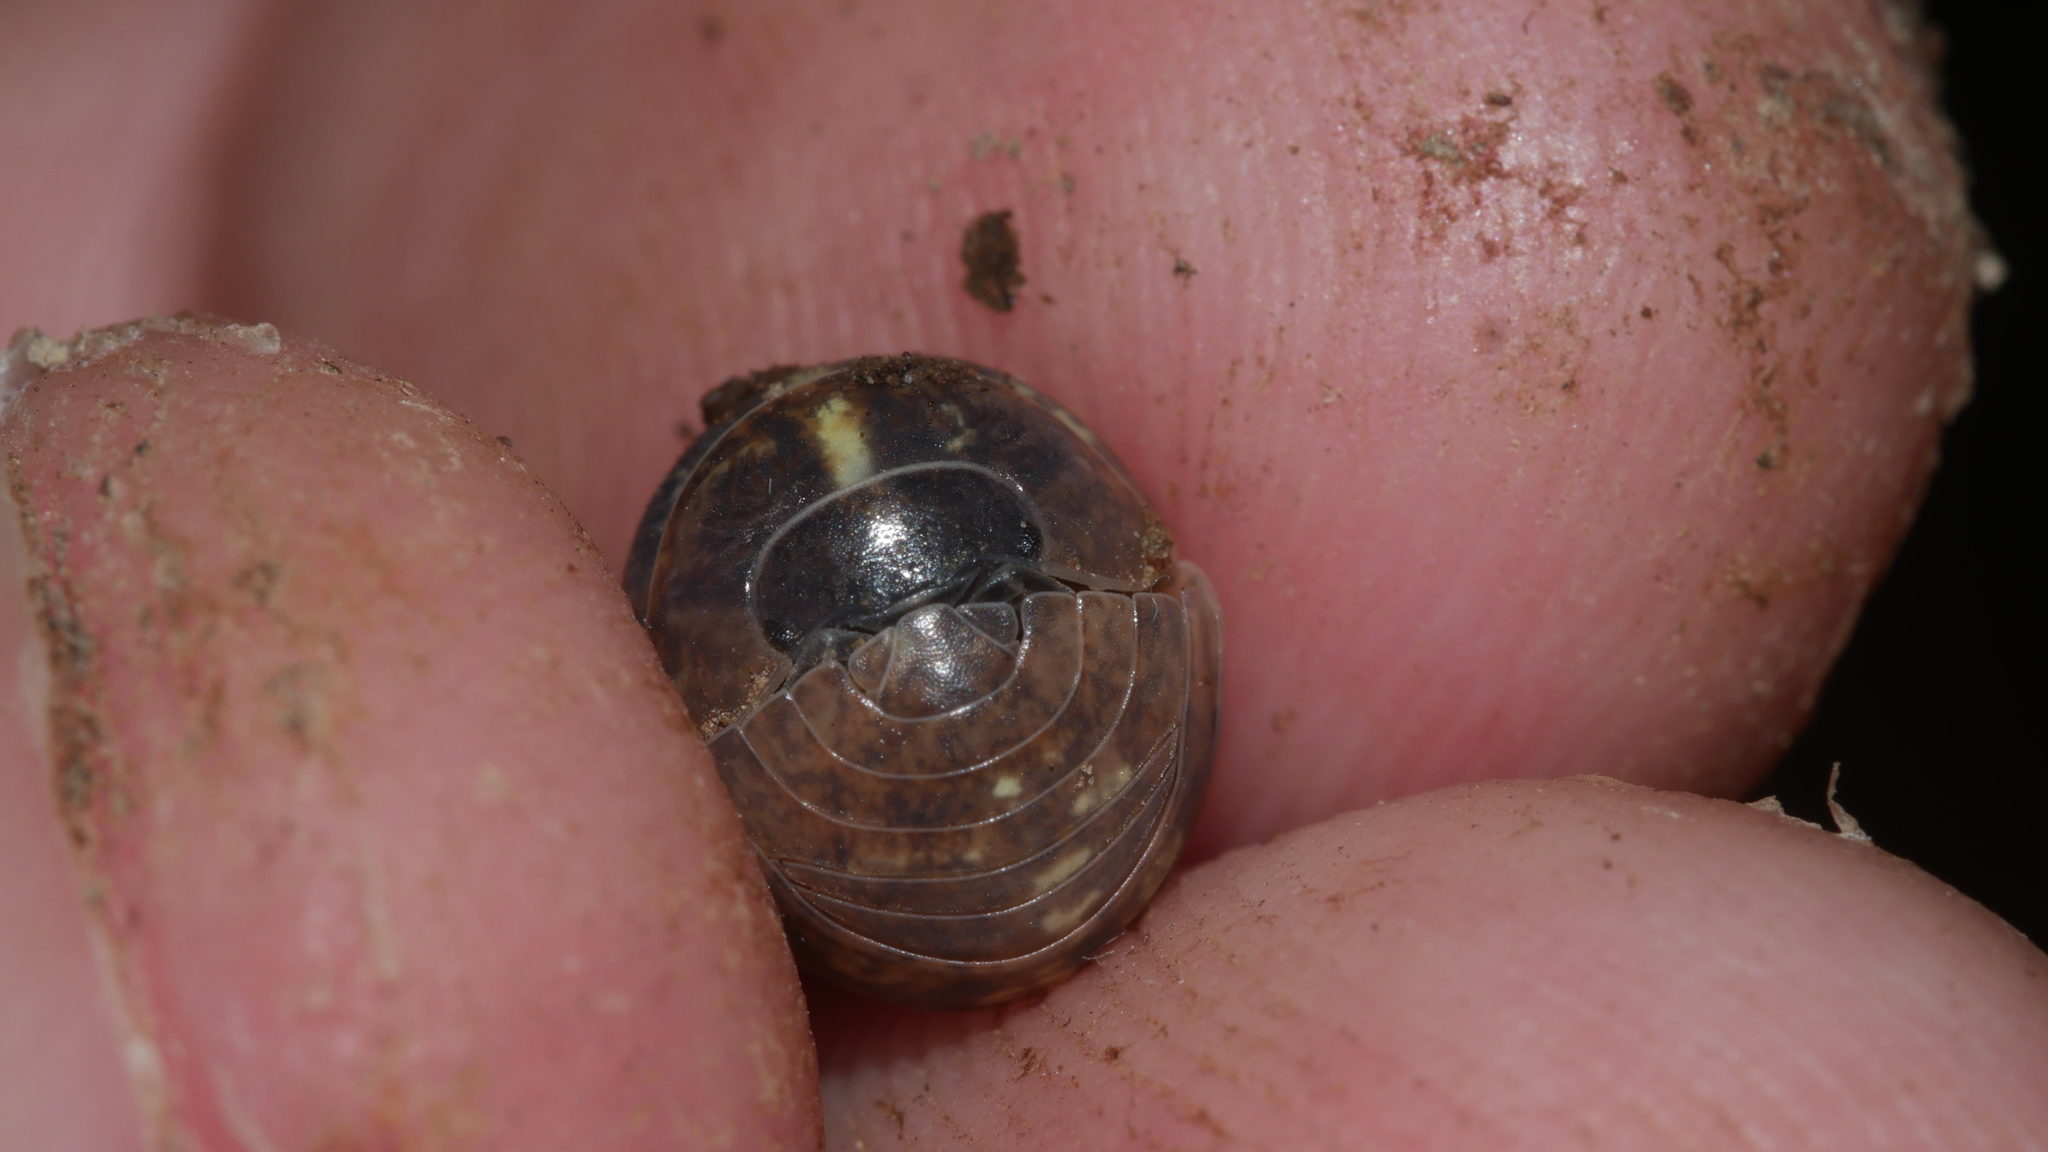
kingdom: Animalia
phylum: Arthropoda
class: Malacostraca
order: Isopoda
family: Armadillidiidae
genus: Armadillidium
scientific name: Armadillidium vulgare
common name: Common pill woodlouse
